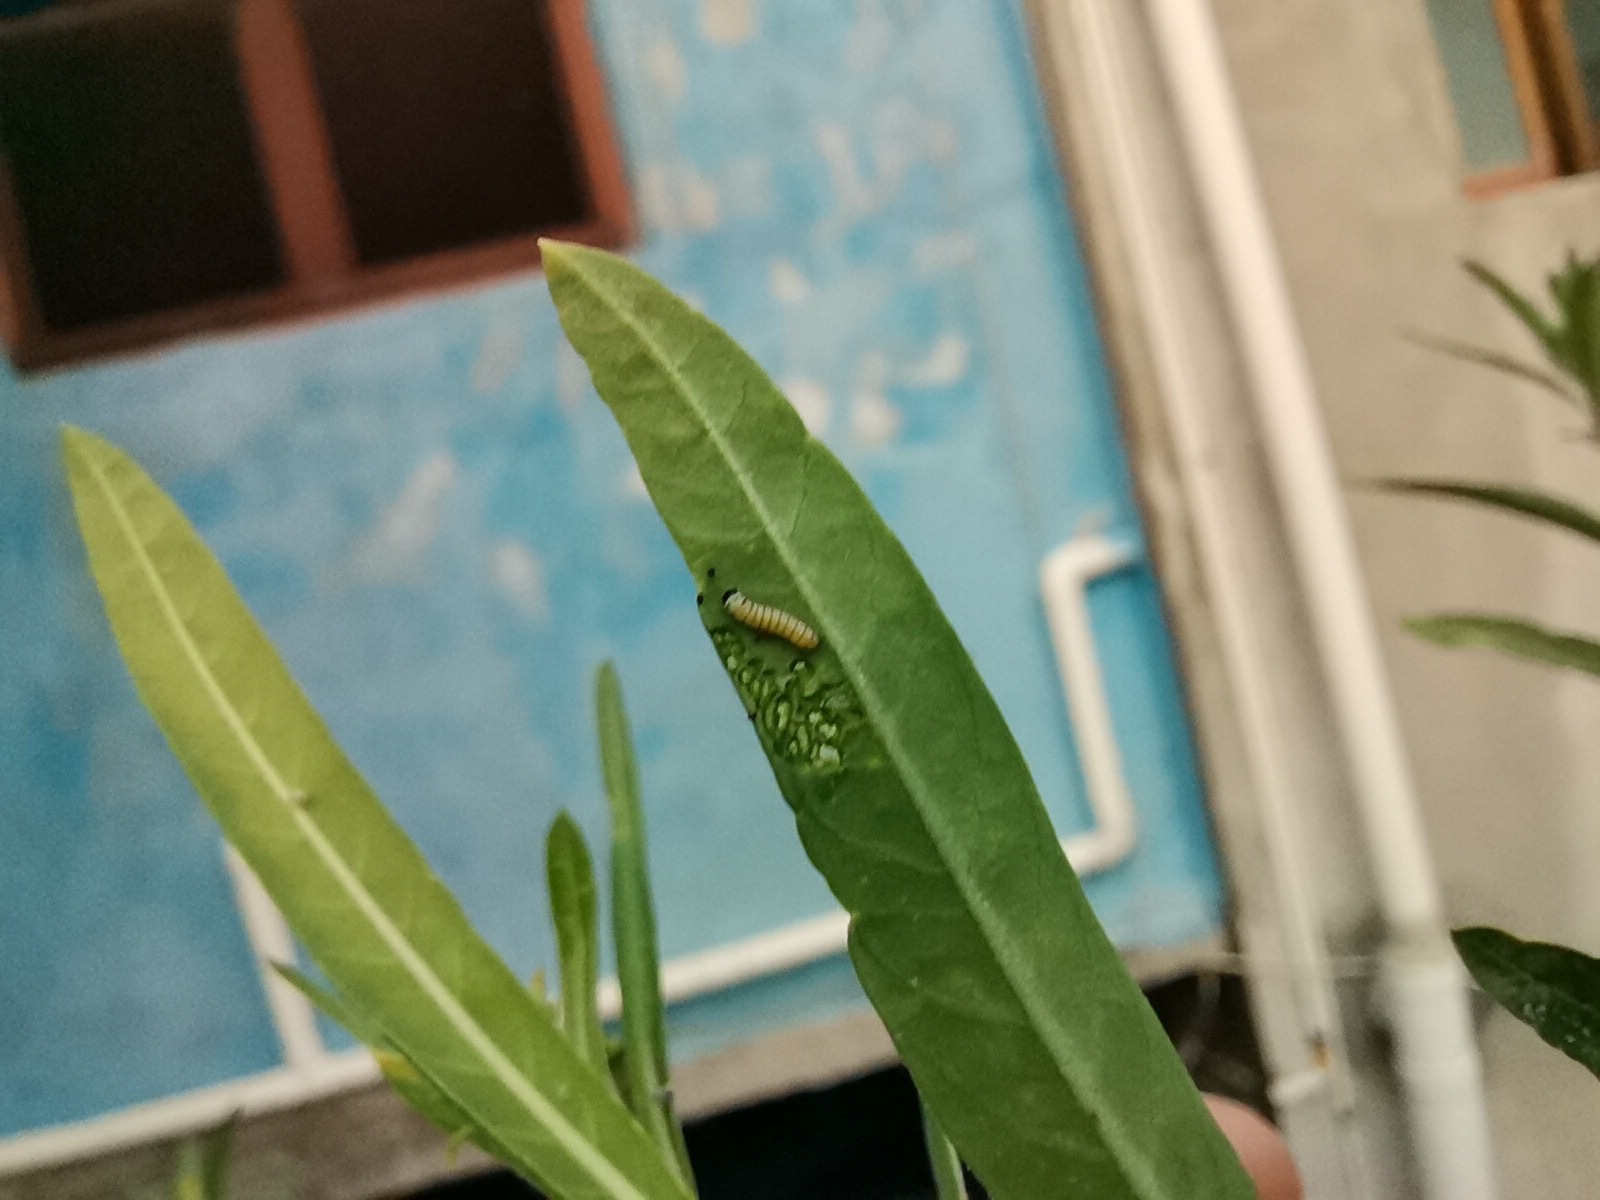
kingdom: Animalia
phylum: Arthropoda
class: Insecta
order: Lepidoptera
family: Nymphalidae
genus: Danaus
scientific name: Danaus plexippus
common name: Monarch
